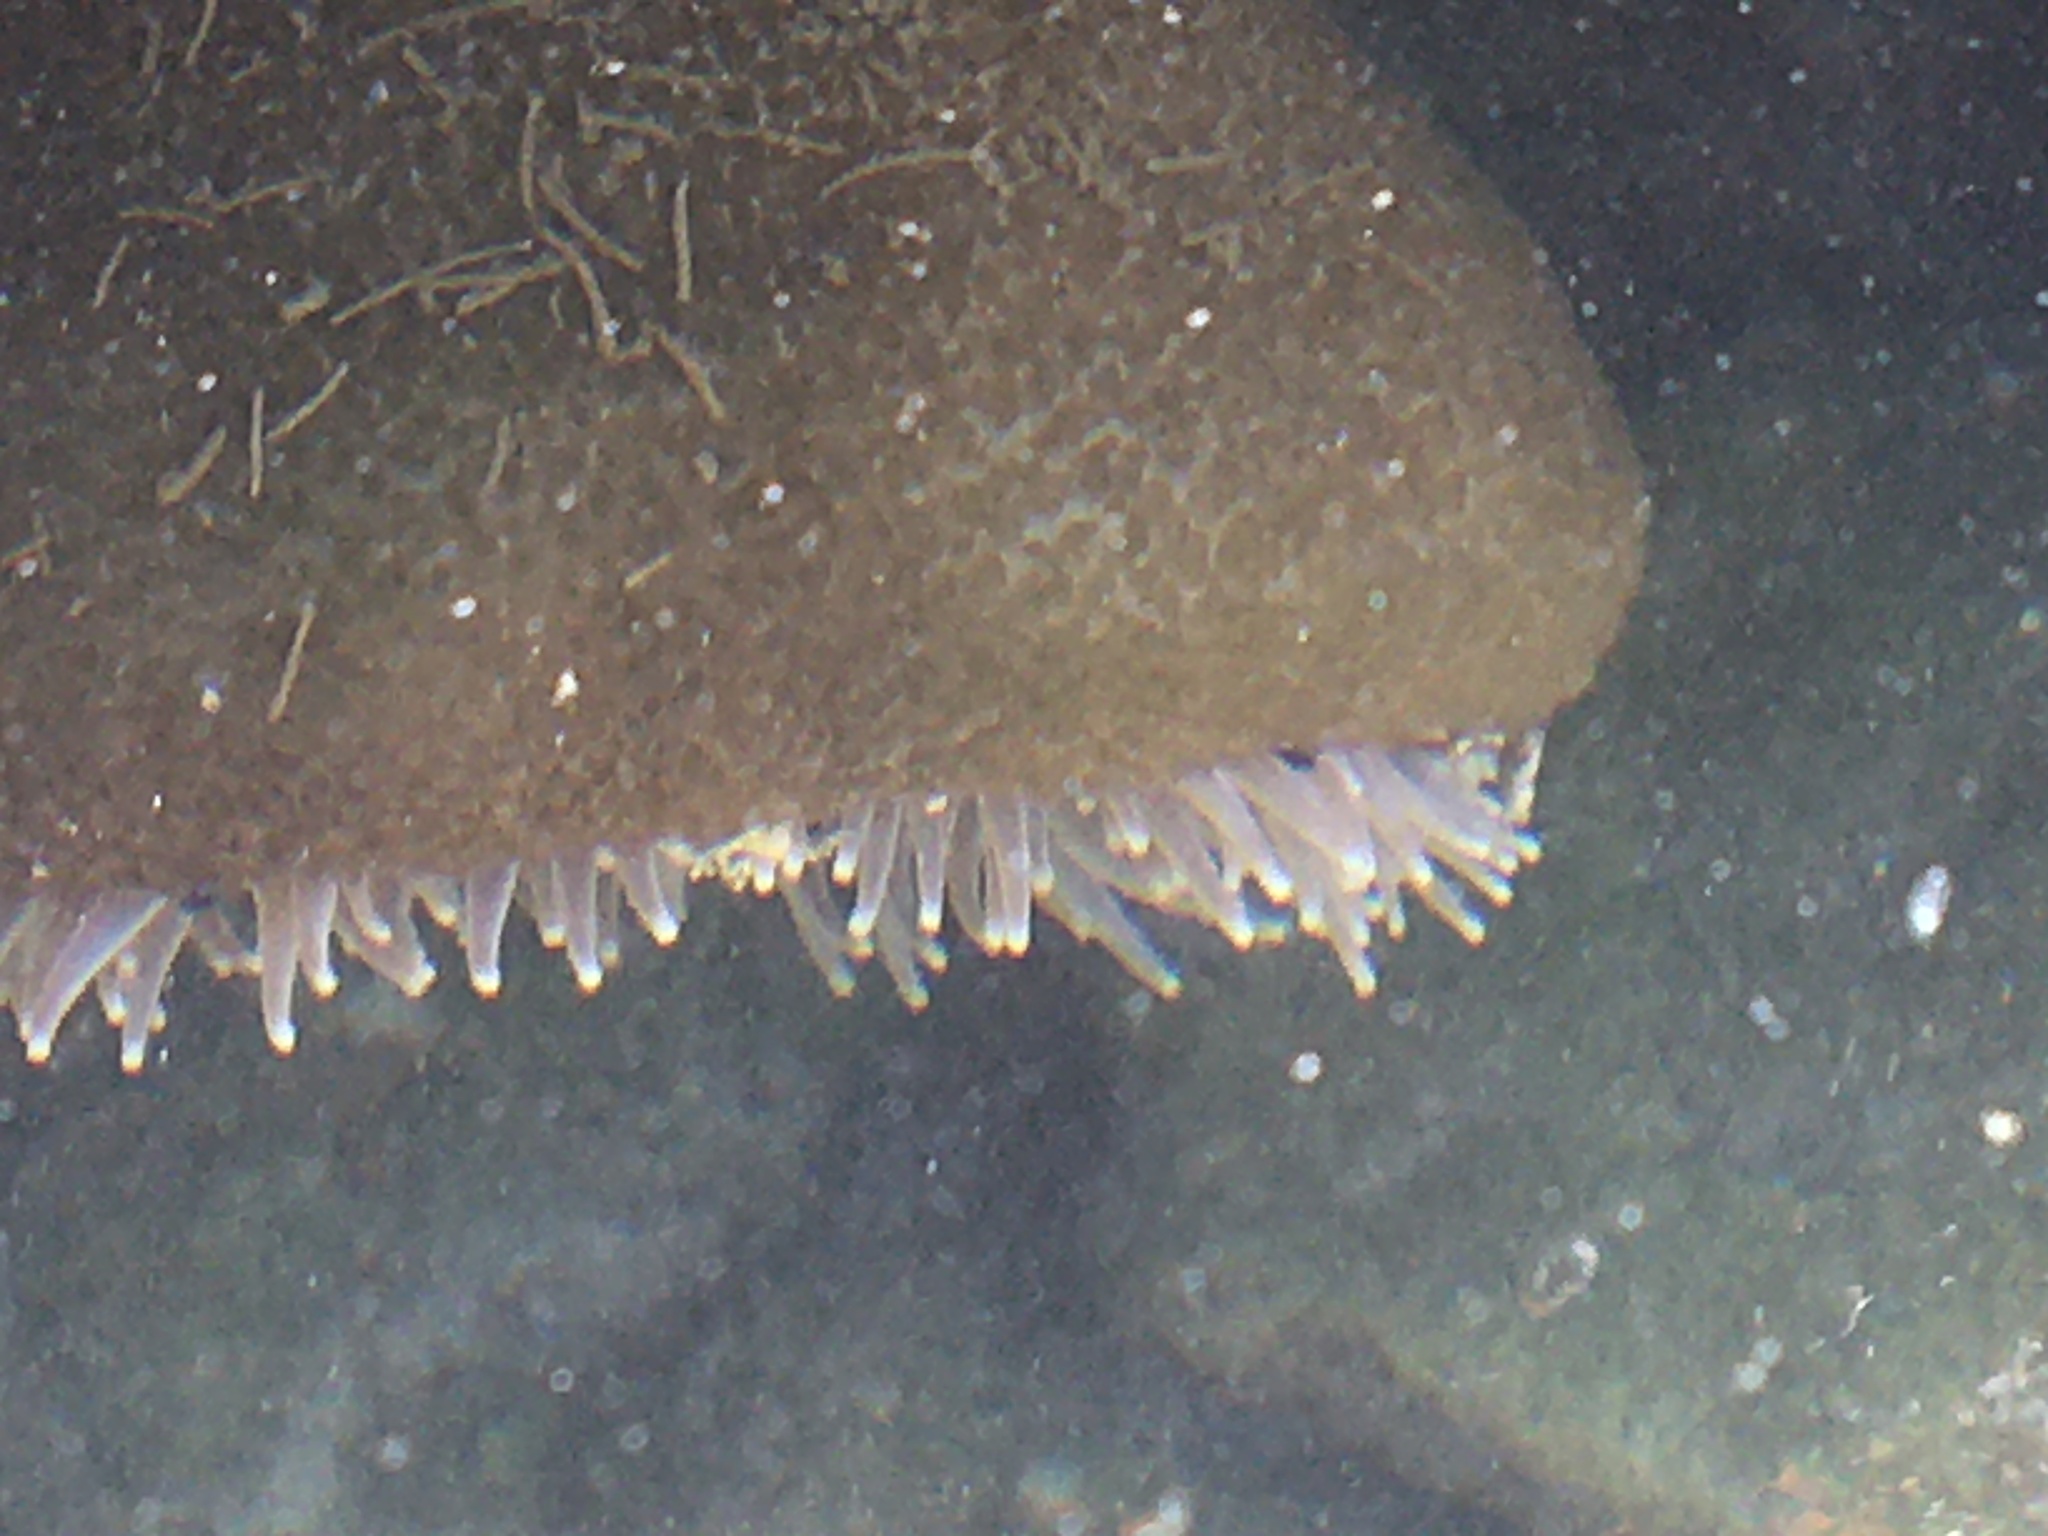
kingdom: Animalia
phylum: Cnidaria
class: Anthozoa
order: Actiniaria
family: Actiniidae
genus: Anthopleura
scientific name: Anthopleura xanthogrammica
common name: Giant green anemone
